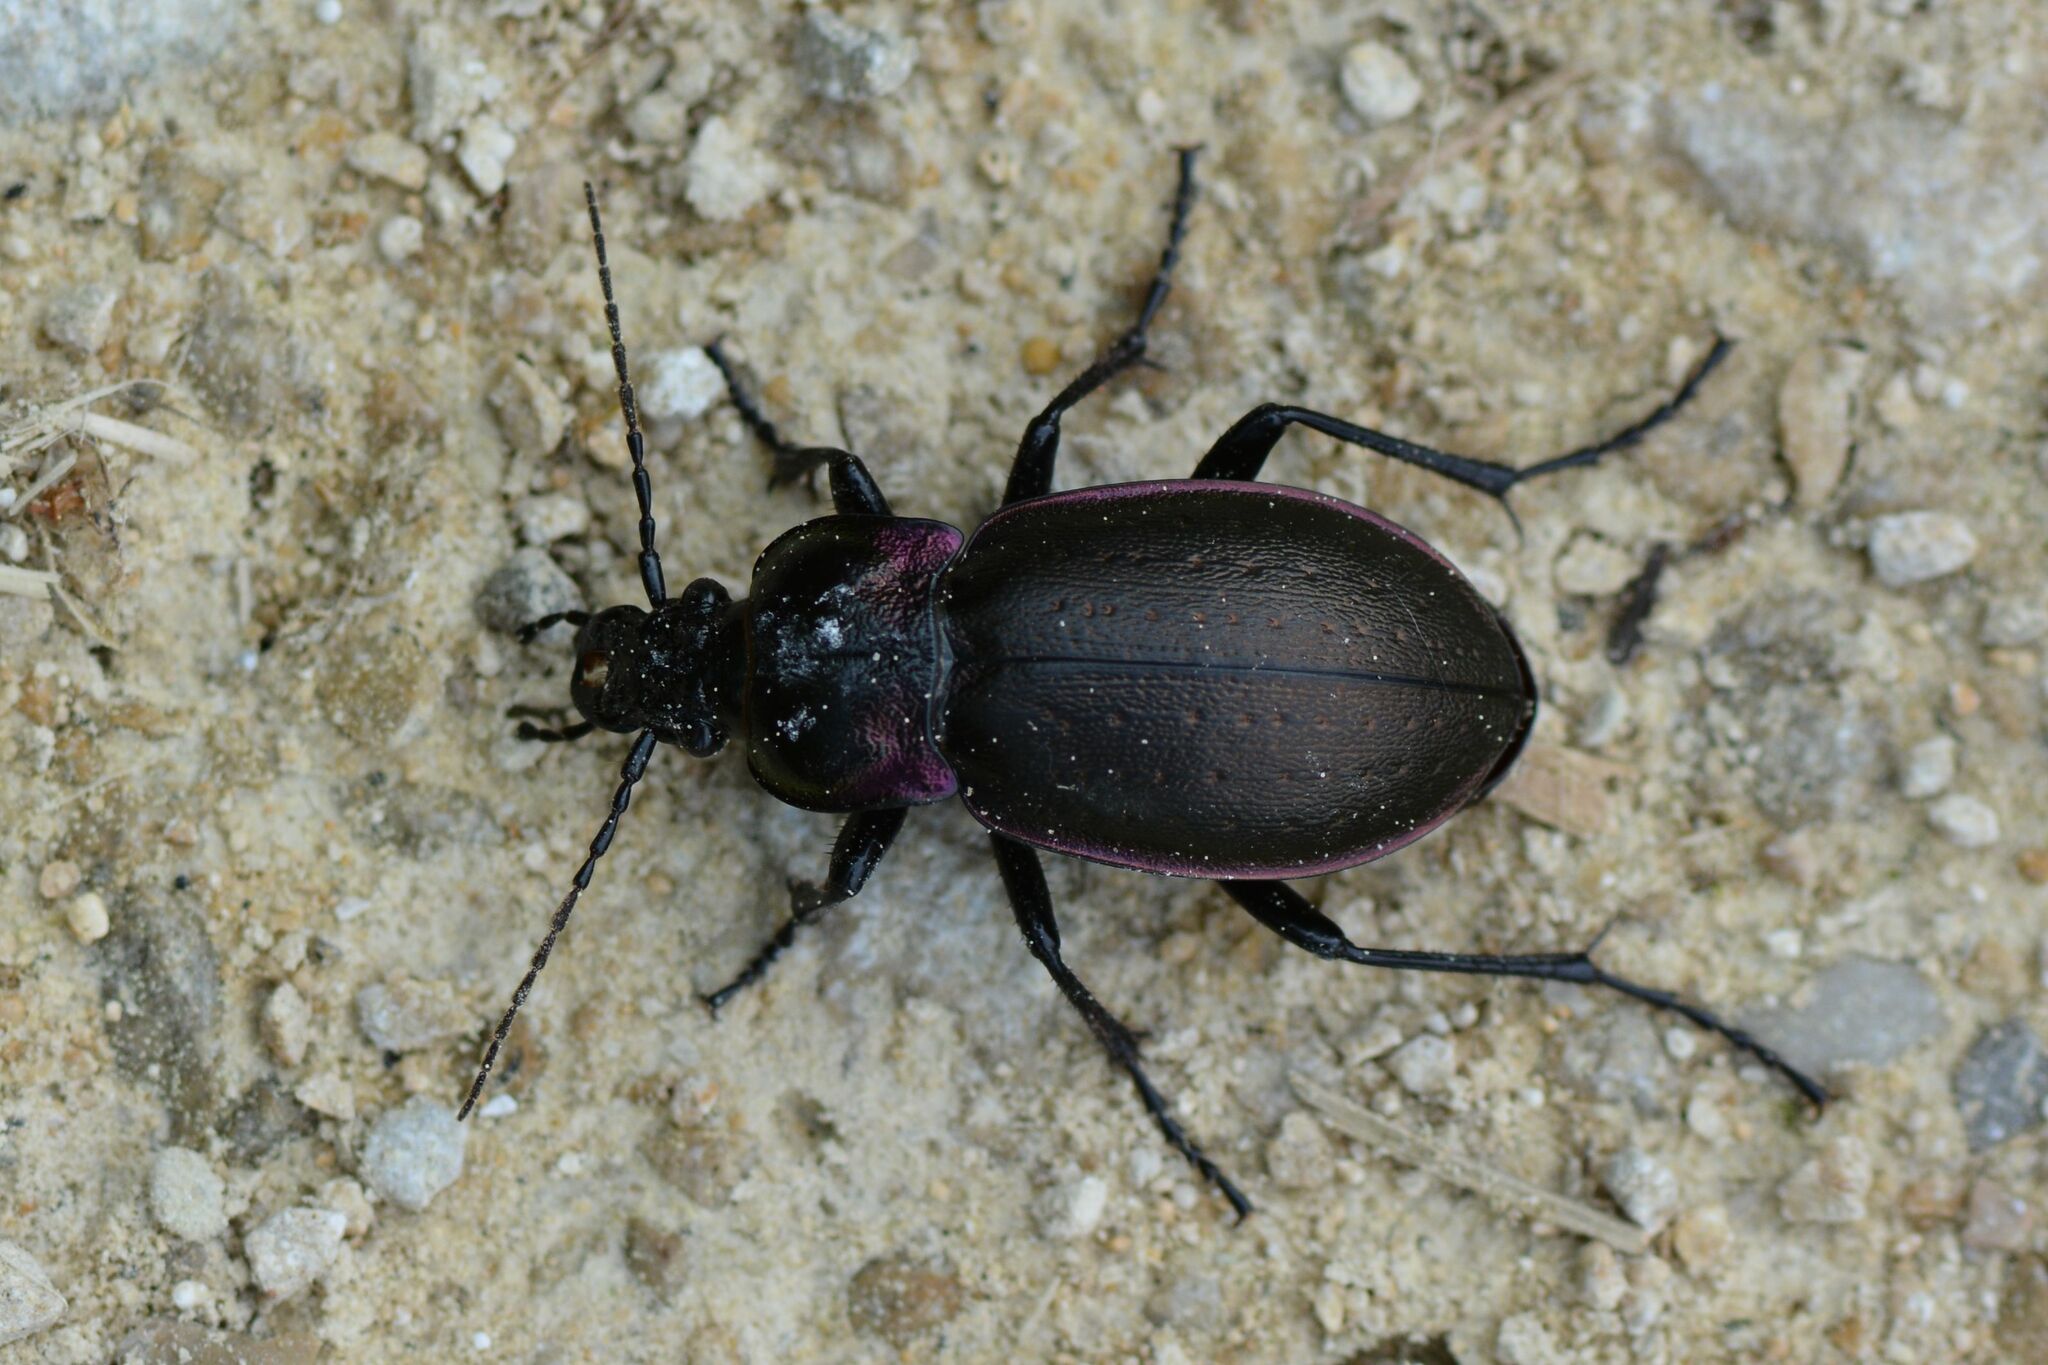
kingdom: Animalia
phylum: Arthropoda
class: Insecta
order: Coleoptera
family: Carabidae
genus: Carabus
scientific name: Carabus nemoralis
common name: European ground beetle
